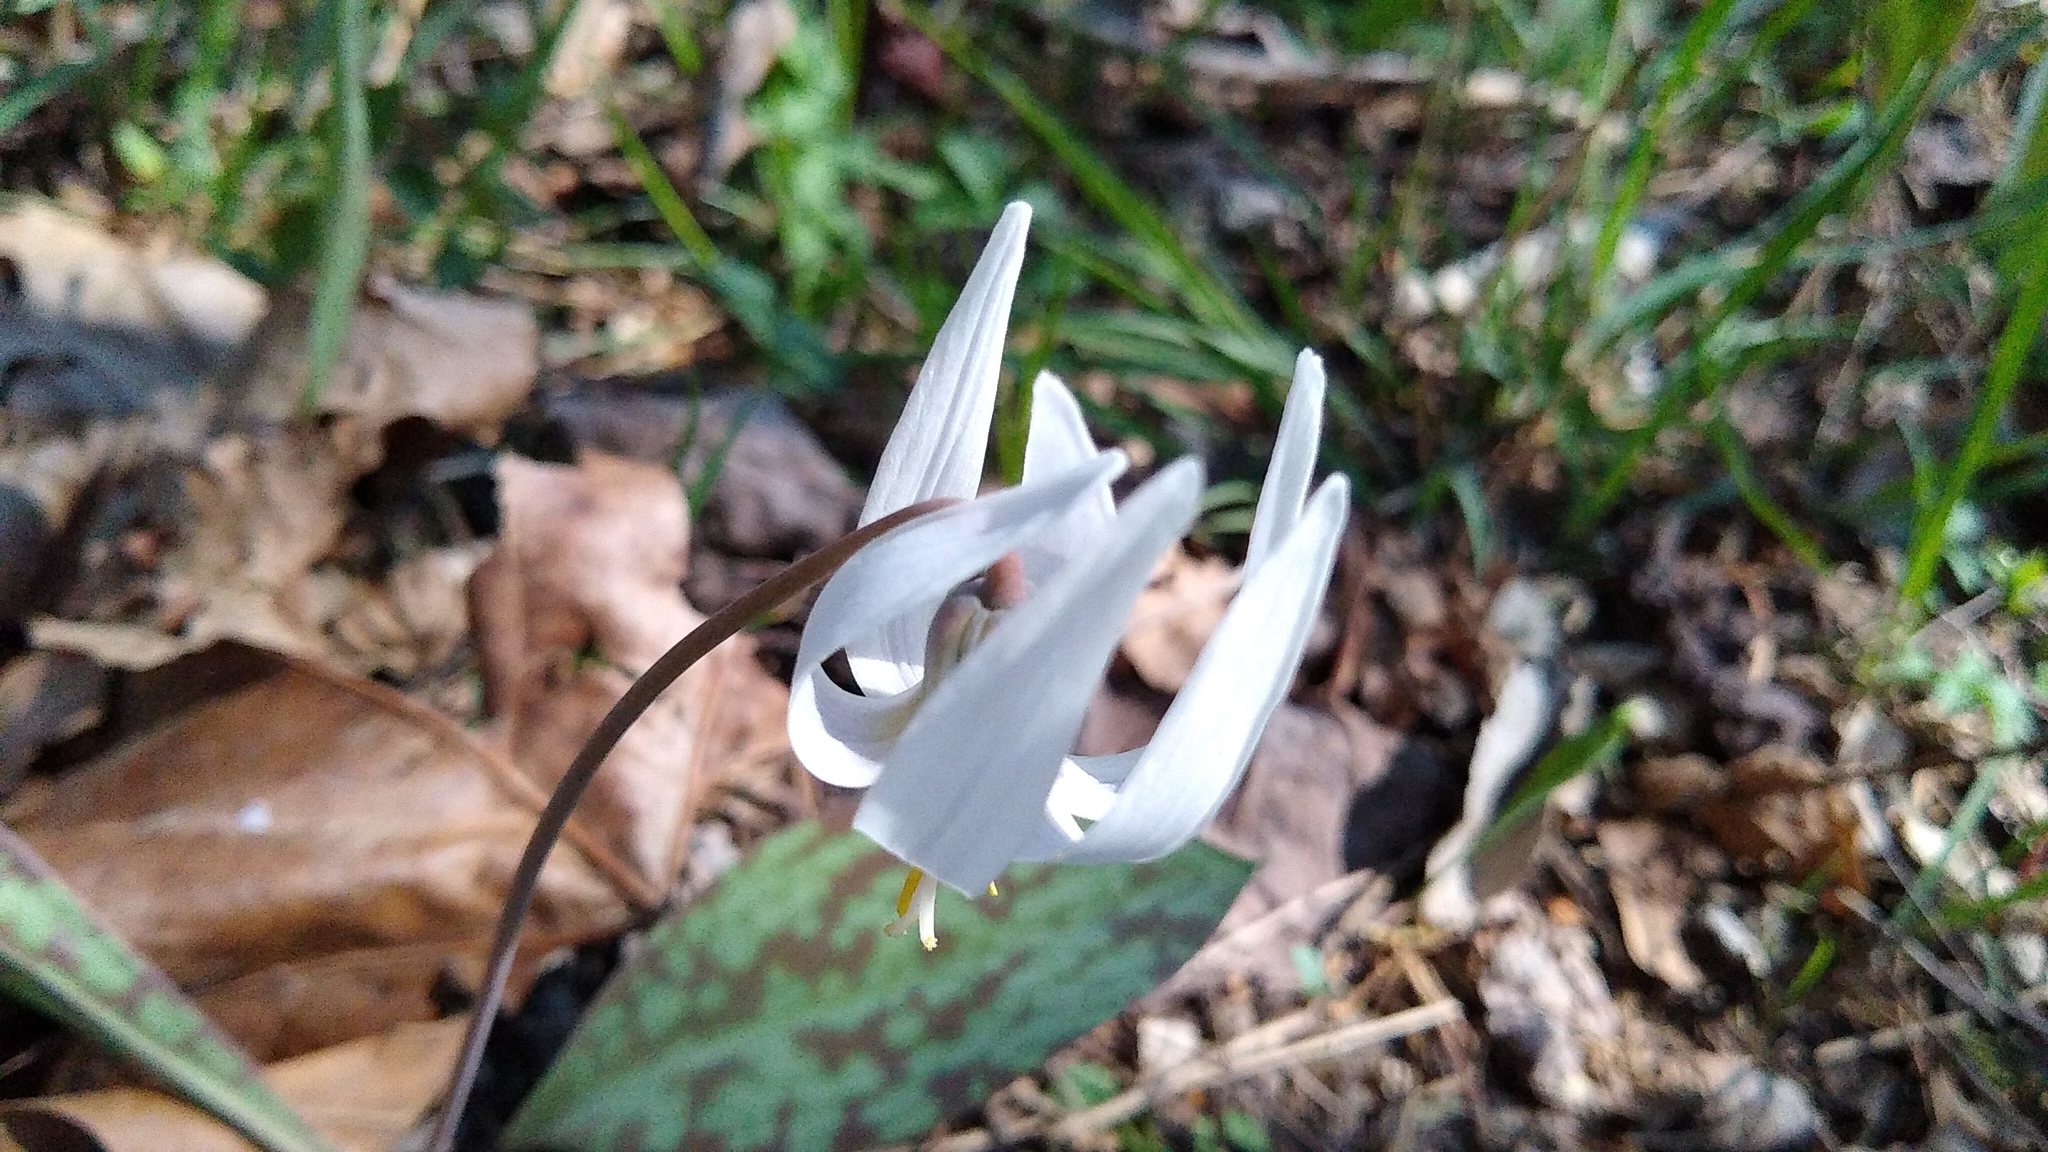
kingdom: Plantae
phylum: Tracheophyta
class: Liliopsida
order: Liliales
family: Liliaceae
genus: Erythronium
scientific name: Erythronium albidum
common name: White trout-lily
